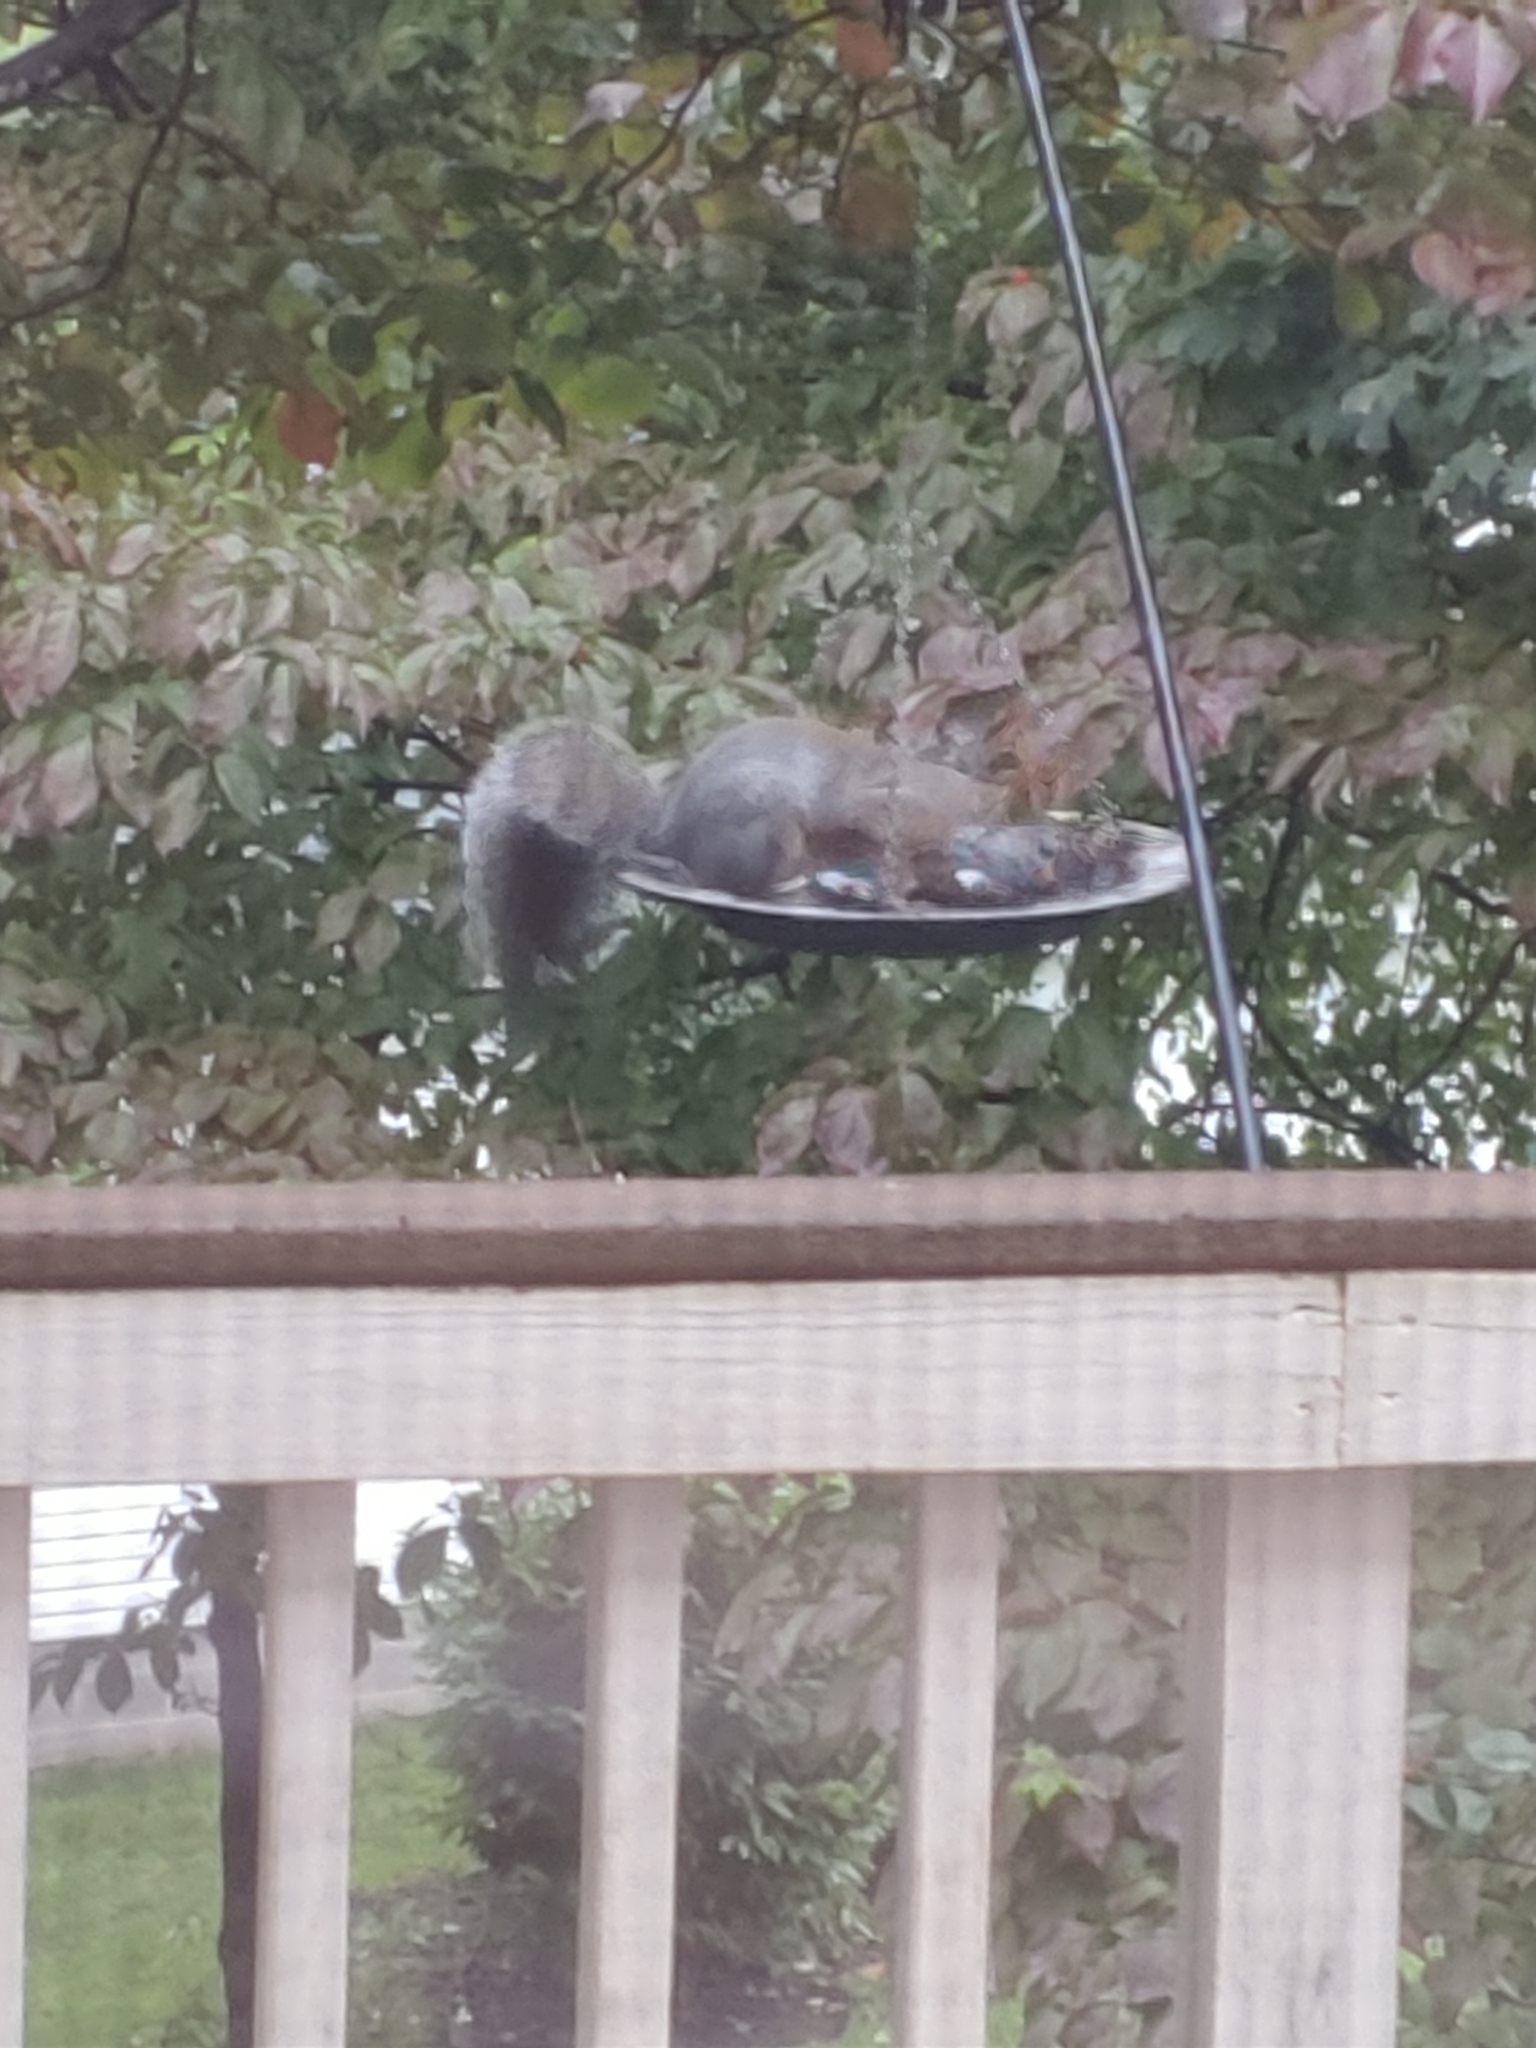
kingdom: Animalia
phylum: Chordata
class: Mammalia
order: Rodentia
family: Sciuridae
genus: Sciurus
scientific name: Sciurus carolinensis
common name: Eastern gray squirrel
